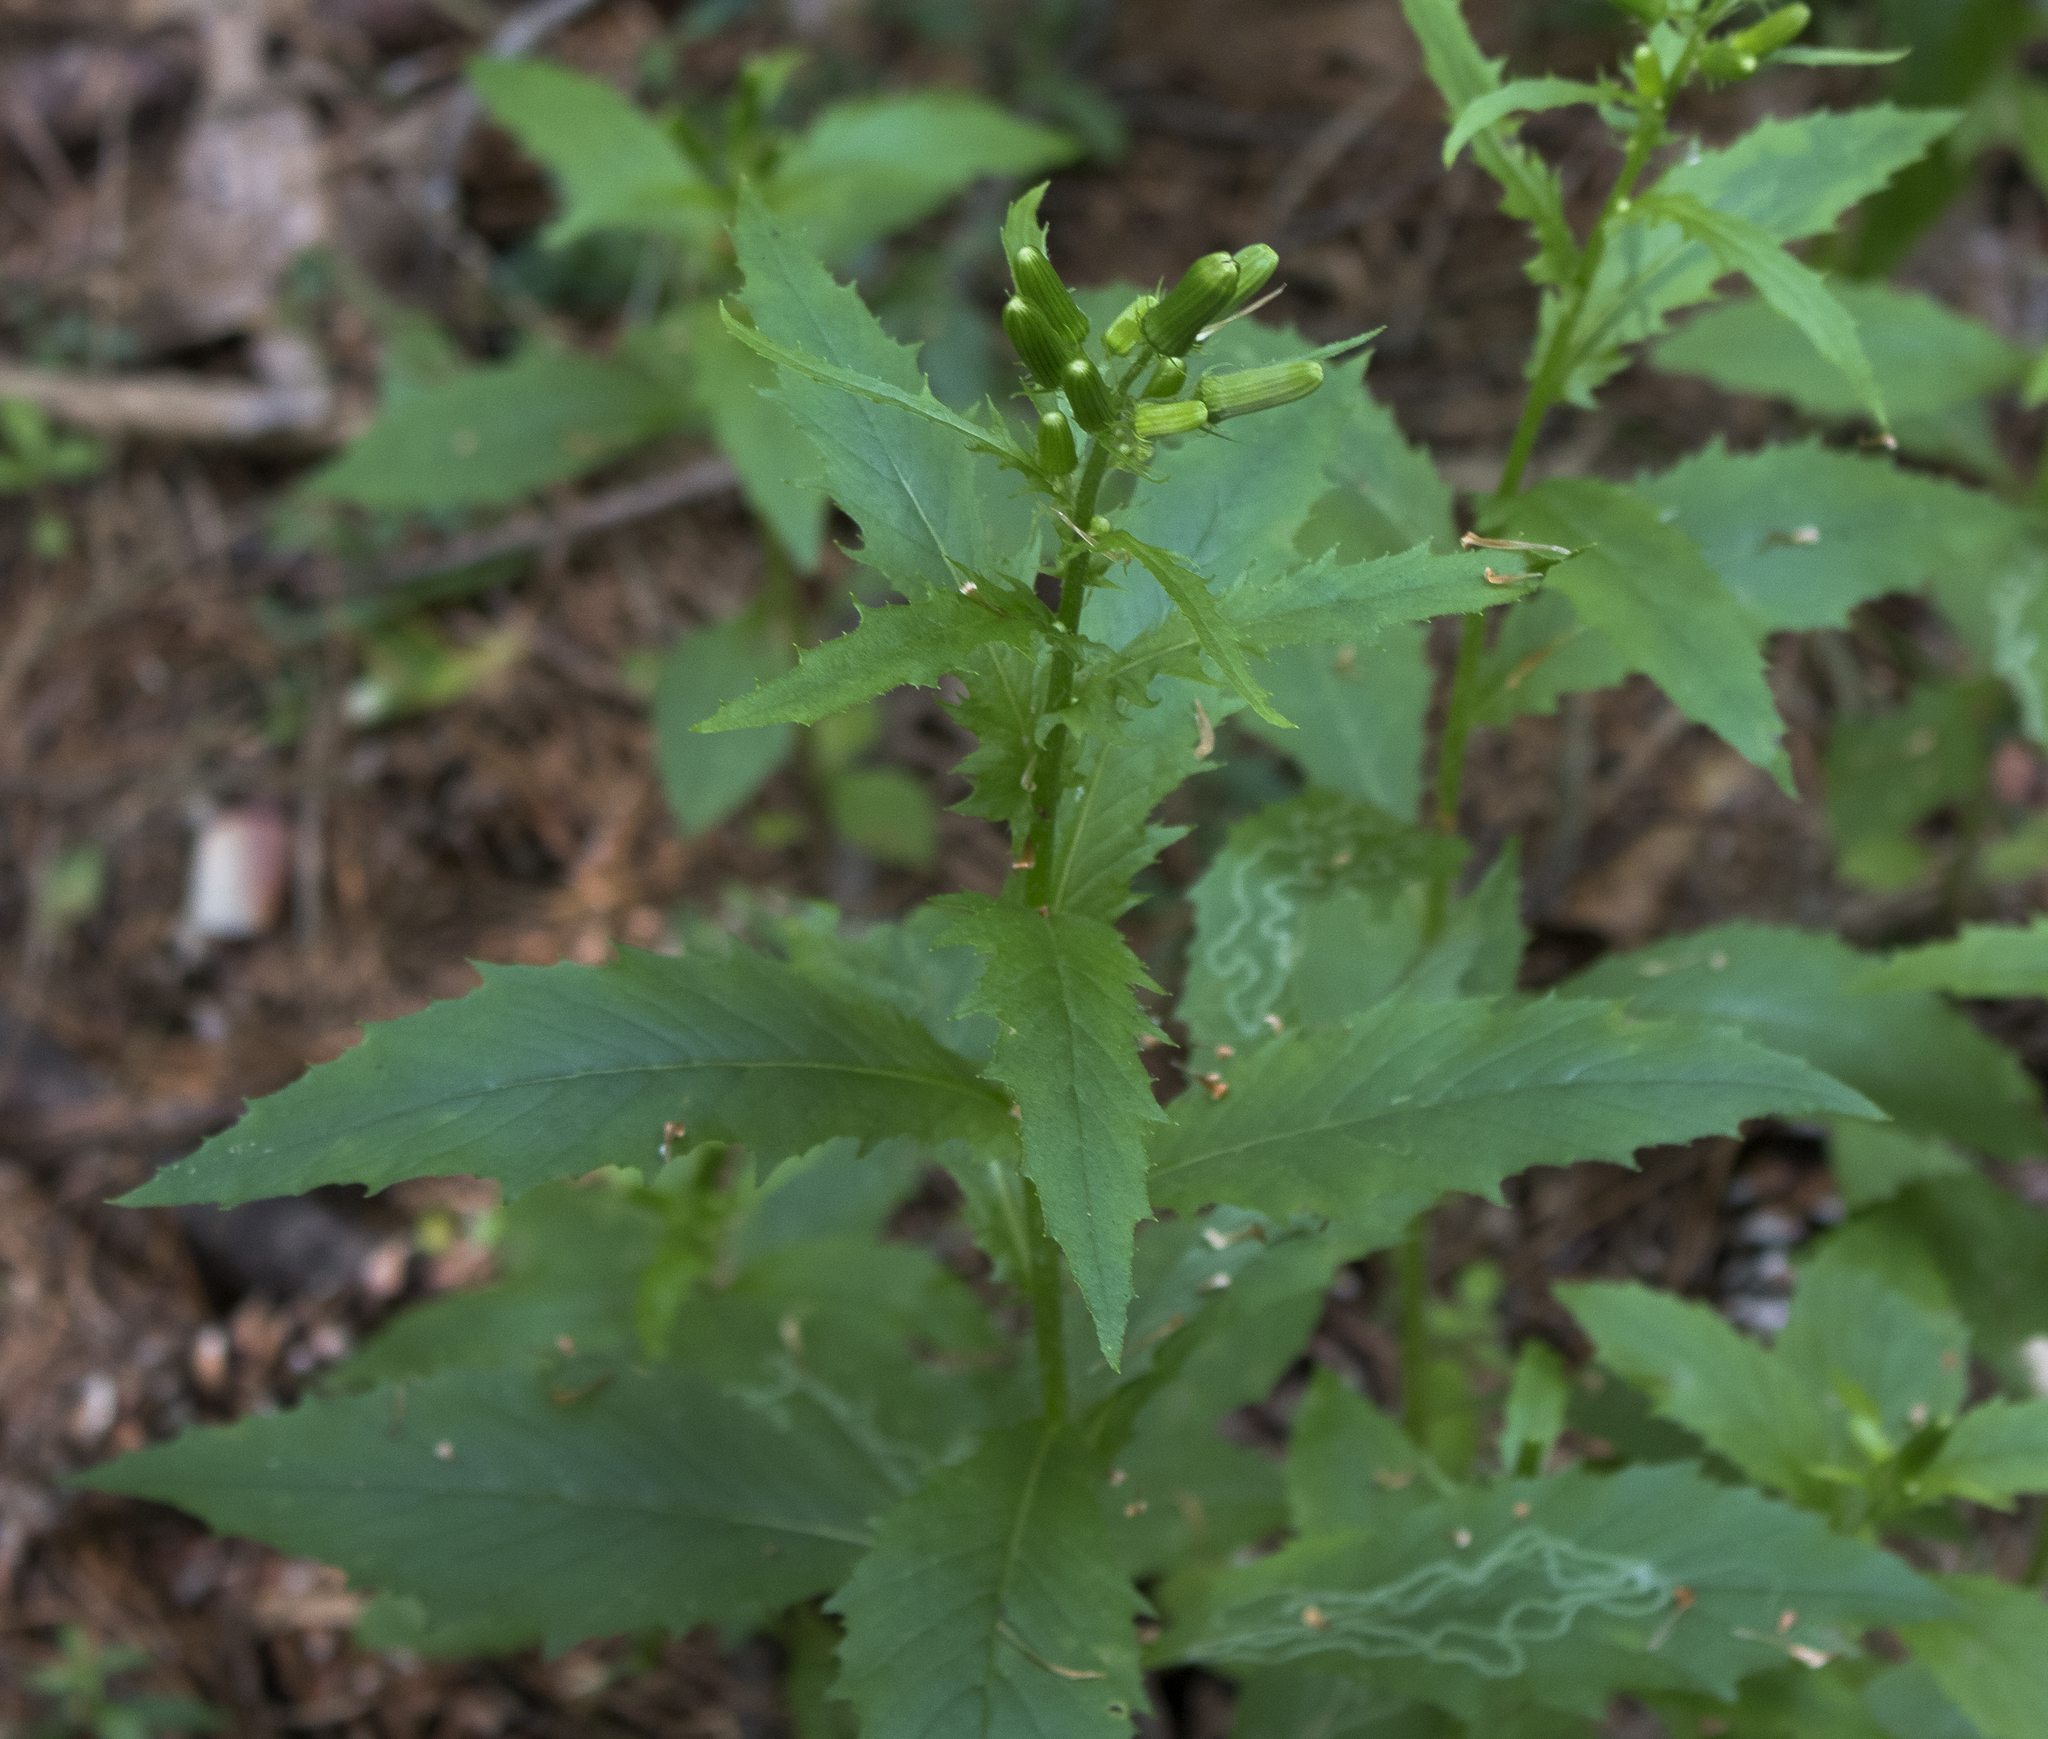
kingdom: Plantae
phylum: Tracheophyta
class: Magnoliopsida
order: Asterales
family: Asteraceae
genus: Erechtites
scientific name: Erechtites hieraciifolius
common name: American burnweed
